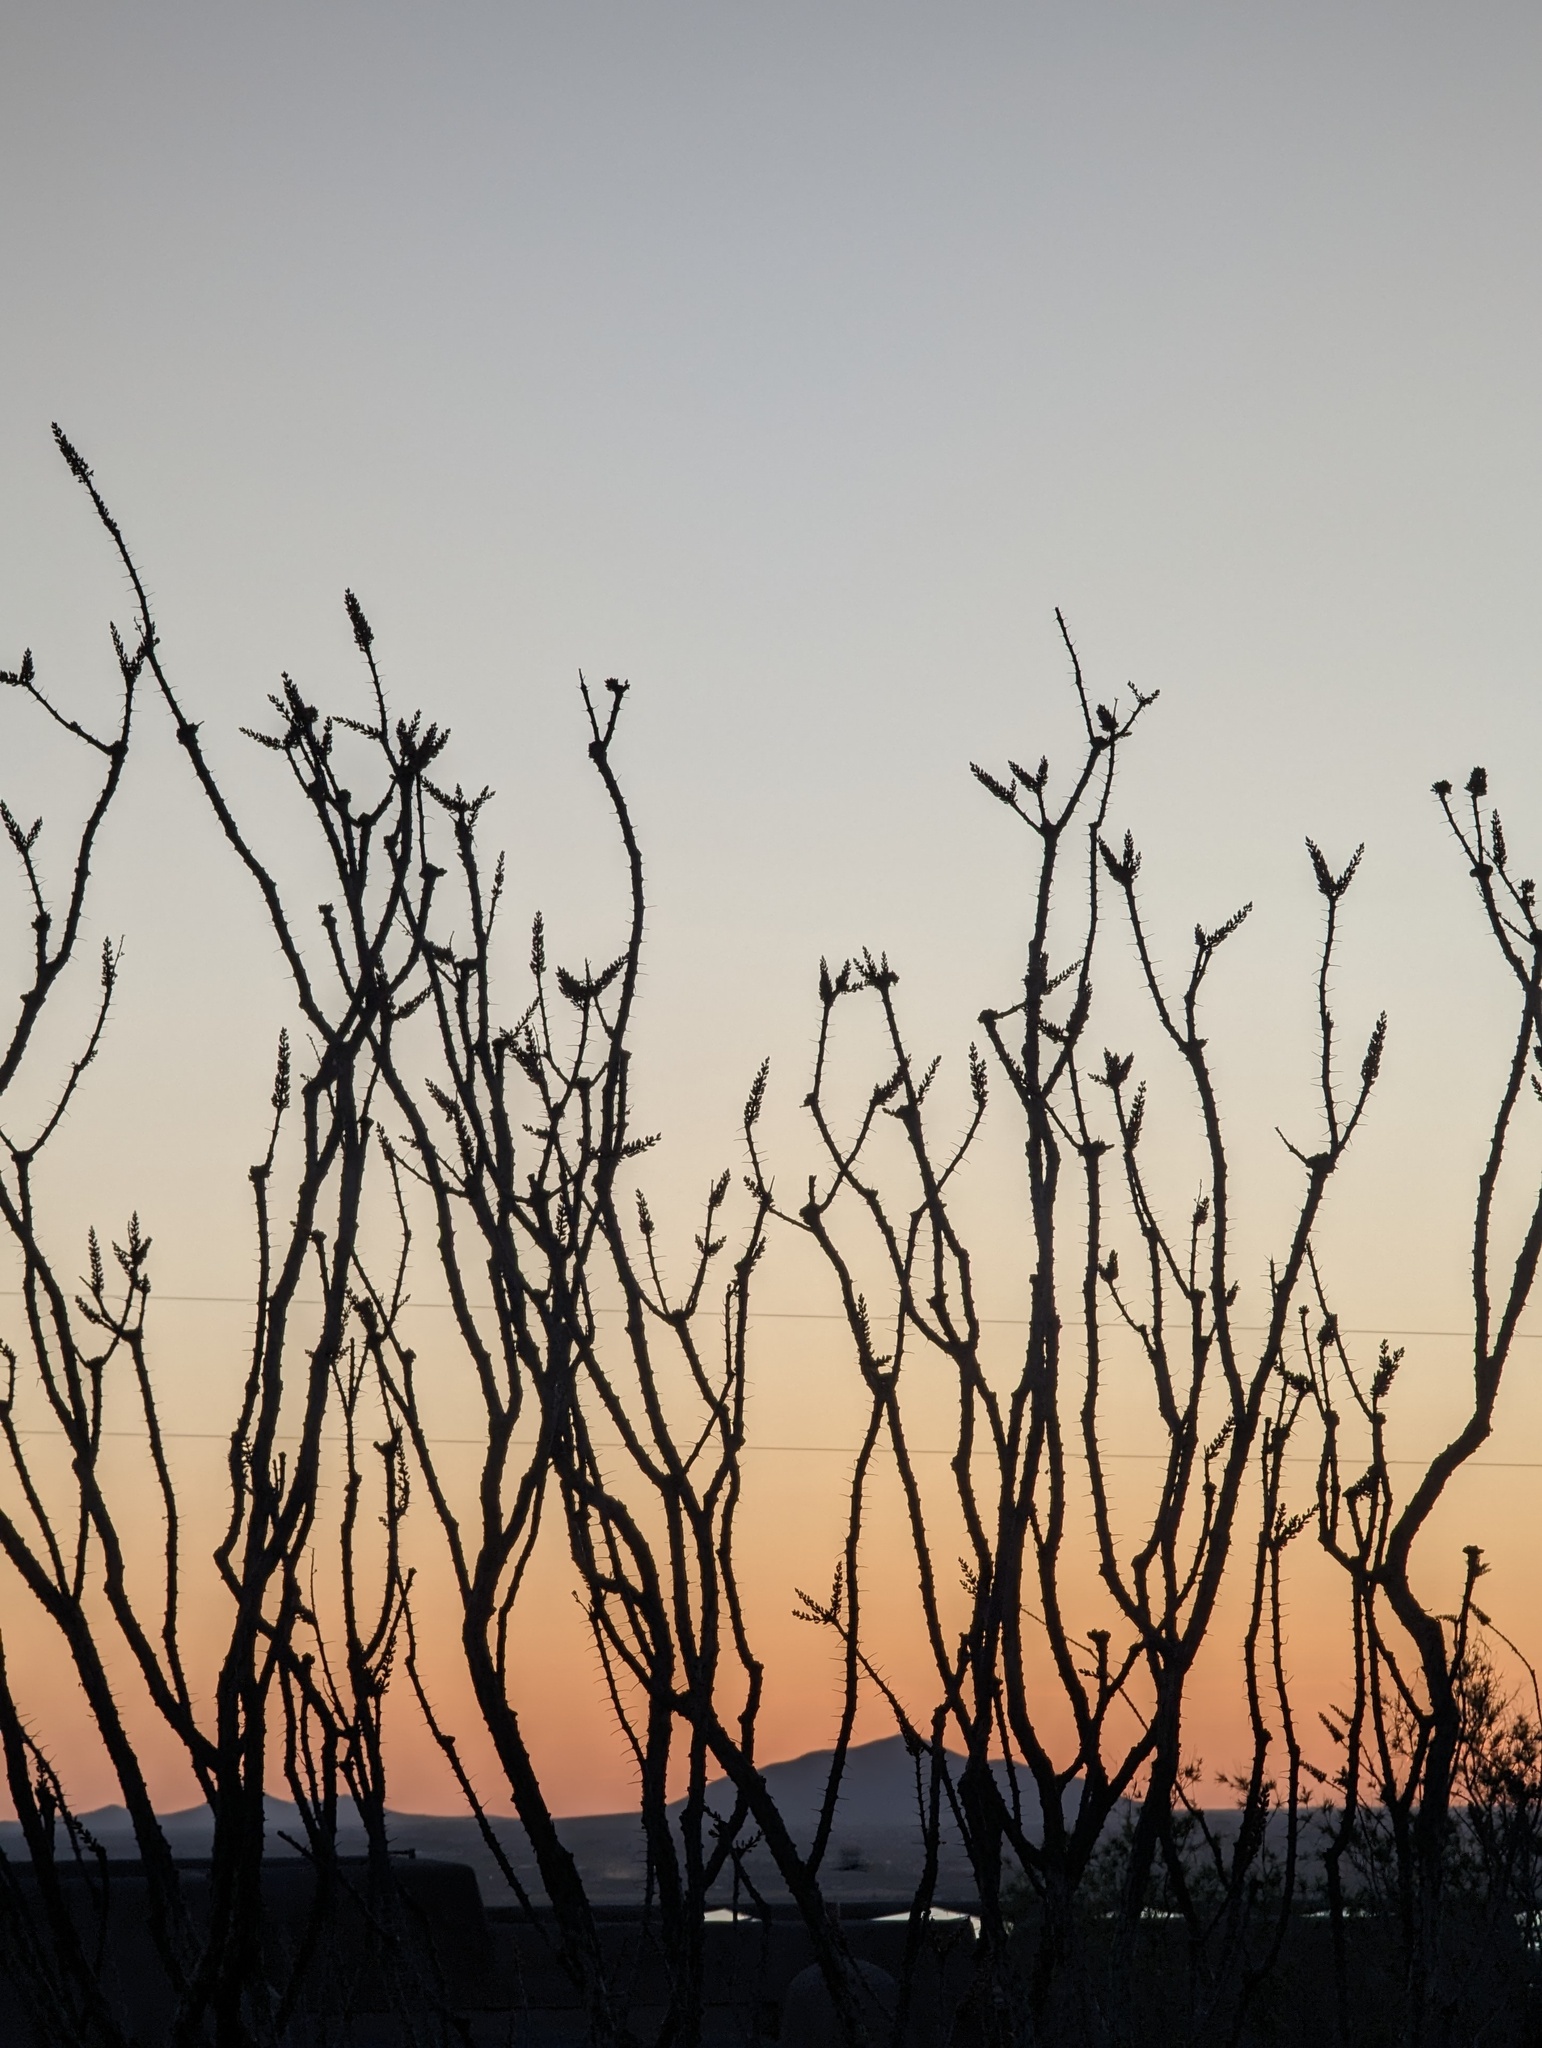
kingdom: Plantae
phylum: Tracheophyta
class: Magnoliopsida
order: Ericales
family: Fouquieriaceae
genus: Fouquieria
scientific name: Fouquieria splendens
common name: Vine-cactus
